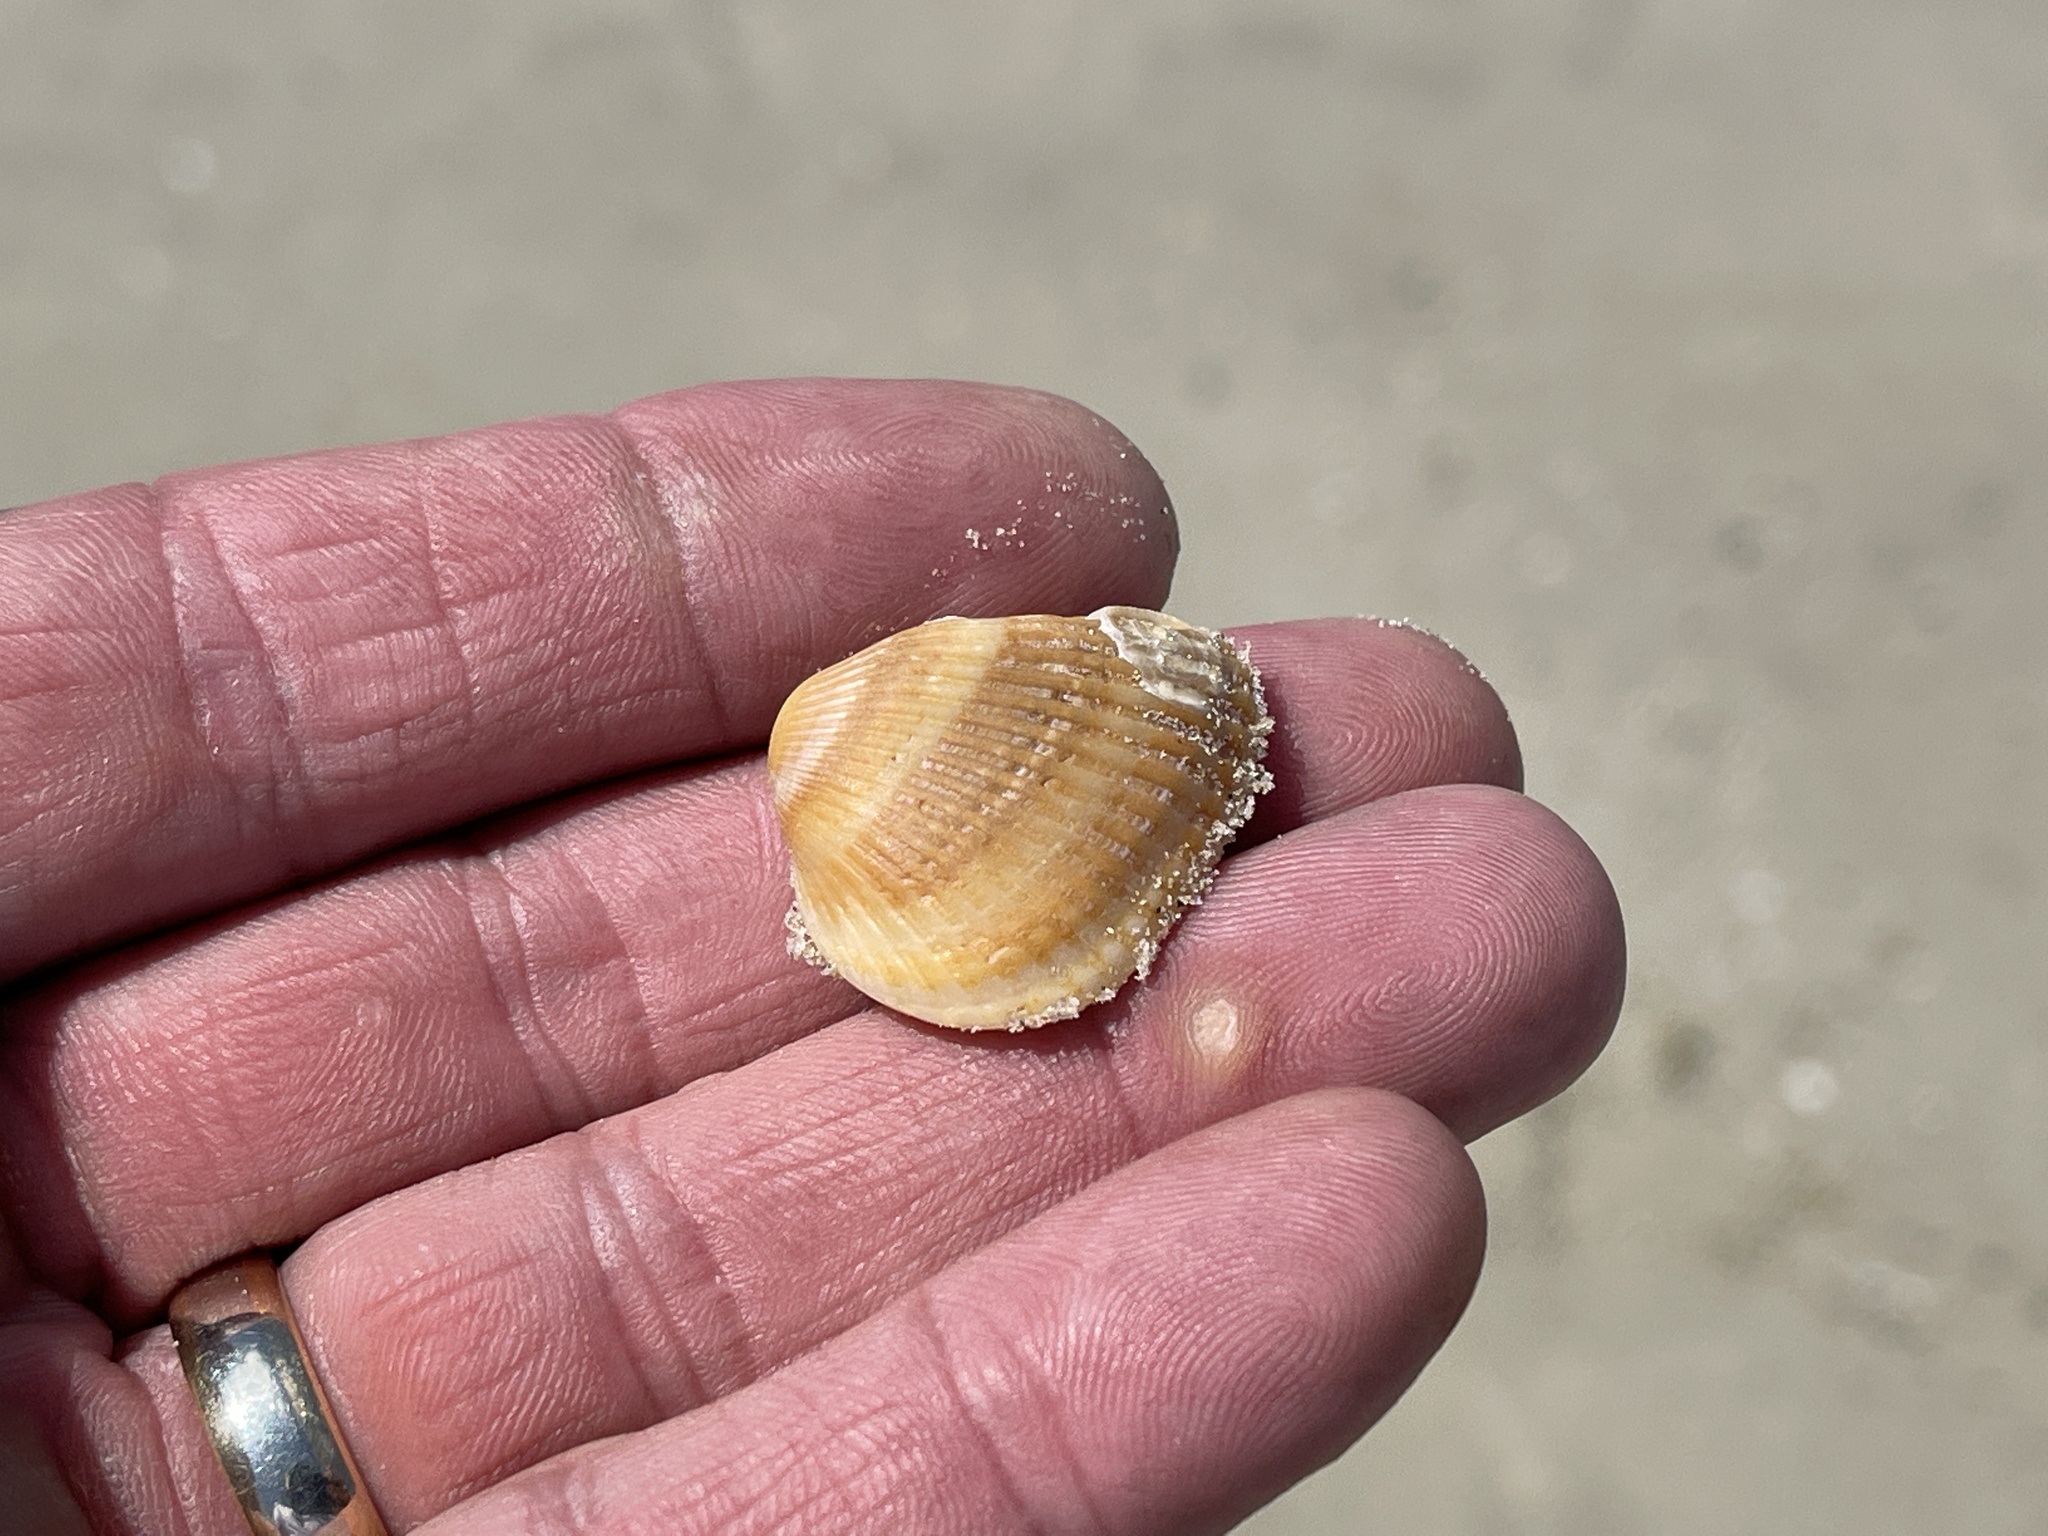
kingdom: Animalia
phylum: Mollusca
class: Bivalvia
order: Arcida
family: Noetiidae
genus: Noetia
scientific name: Noetia ponderosa
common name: Ponderous ark
